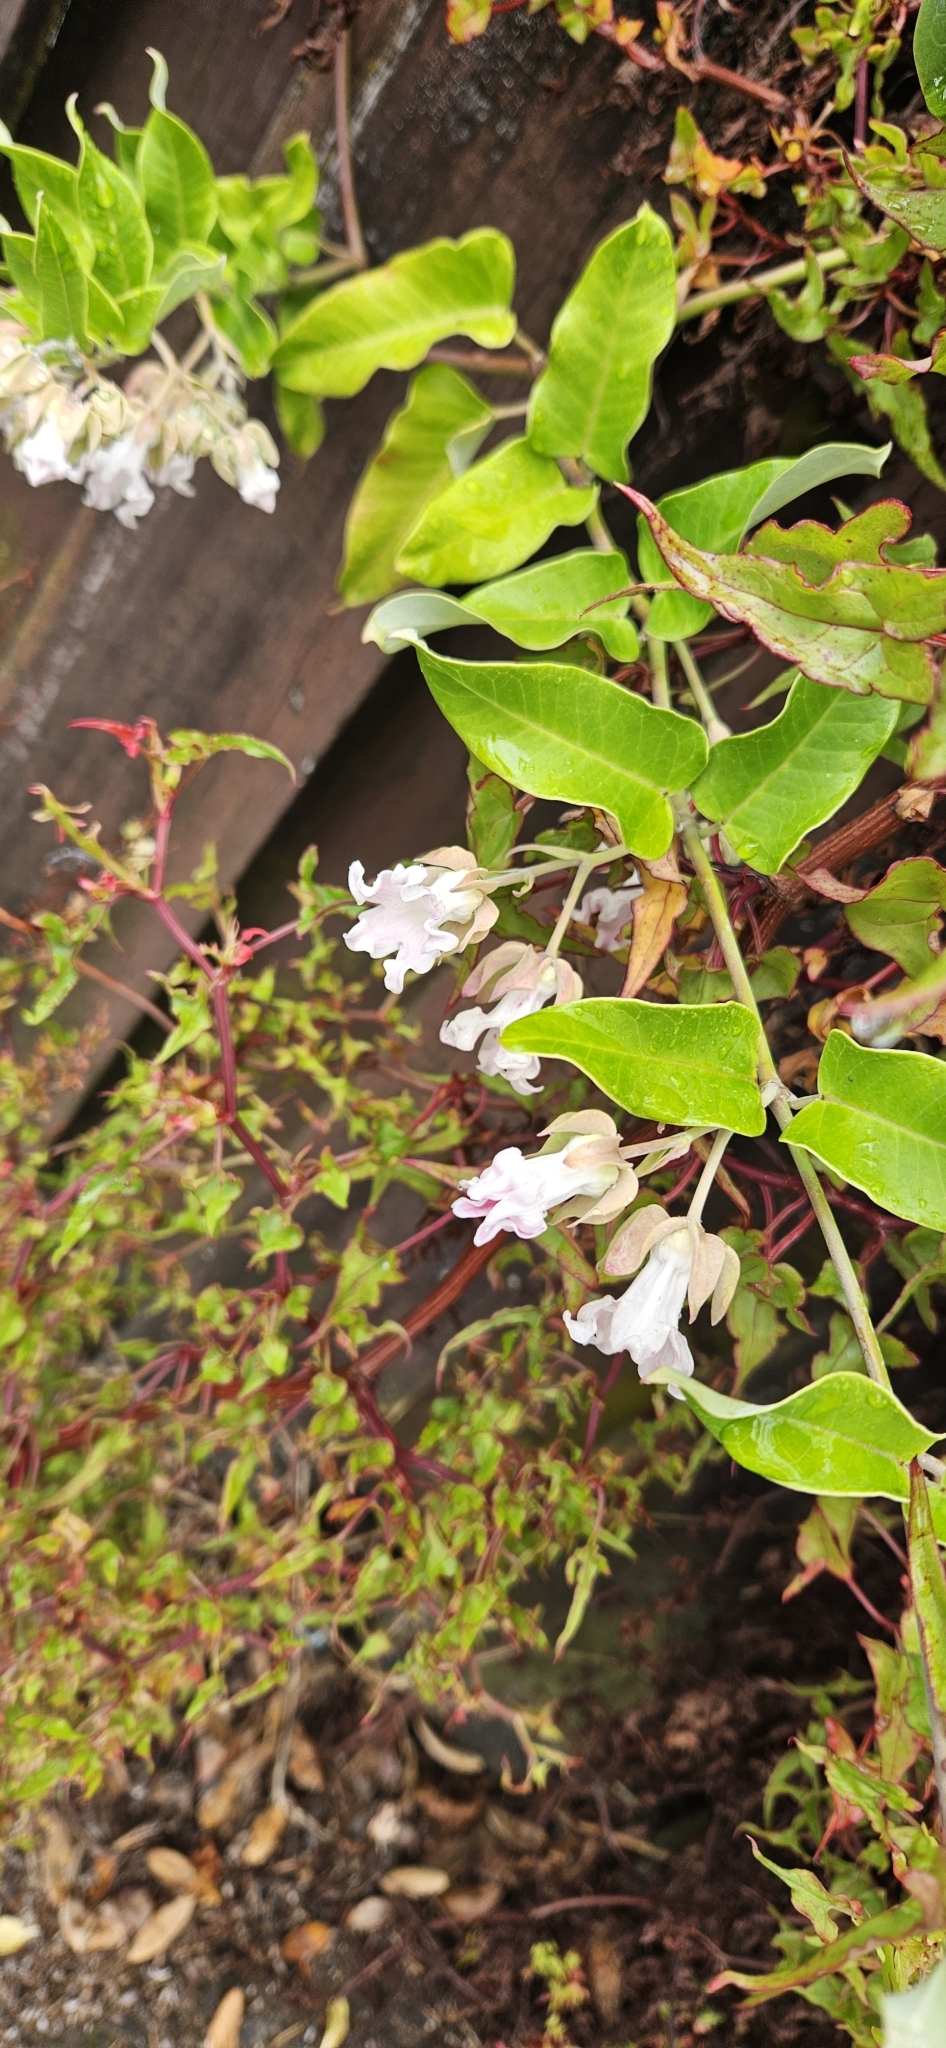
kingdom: Plantae
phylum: Tracheophyta
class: Magnoliopsida
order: Gentianales
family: Apocynaceae
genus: Araujia
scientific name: Araujia sericifera
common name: White bladderflower
